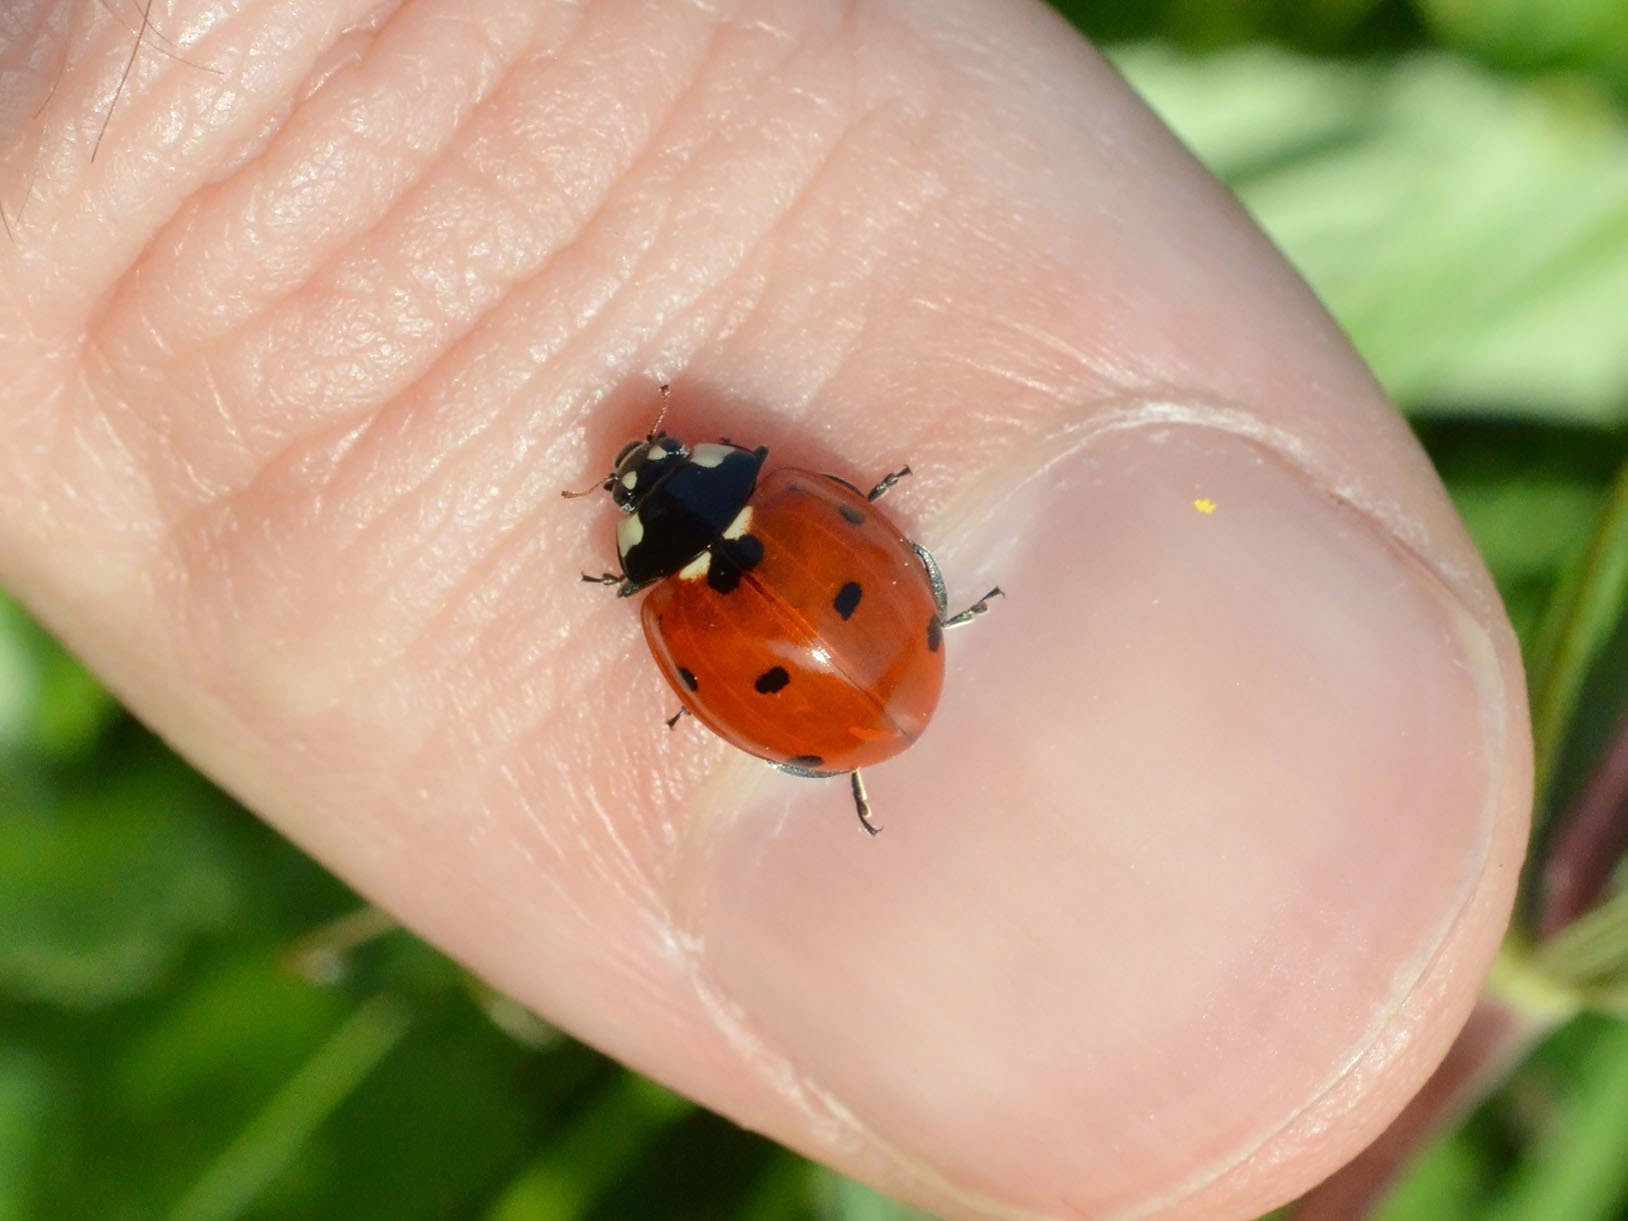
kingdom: Animalia
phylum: Arthropoda
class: Insecta
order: Coleoptera
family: Coccinellidae
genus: Coccinella
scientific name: Coccinella septempunctata
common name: Sevenspotted lady beetle
